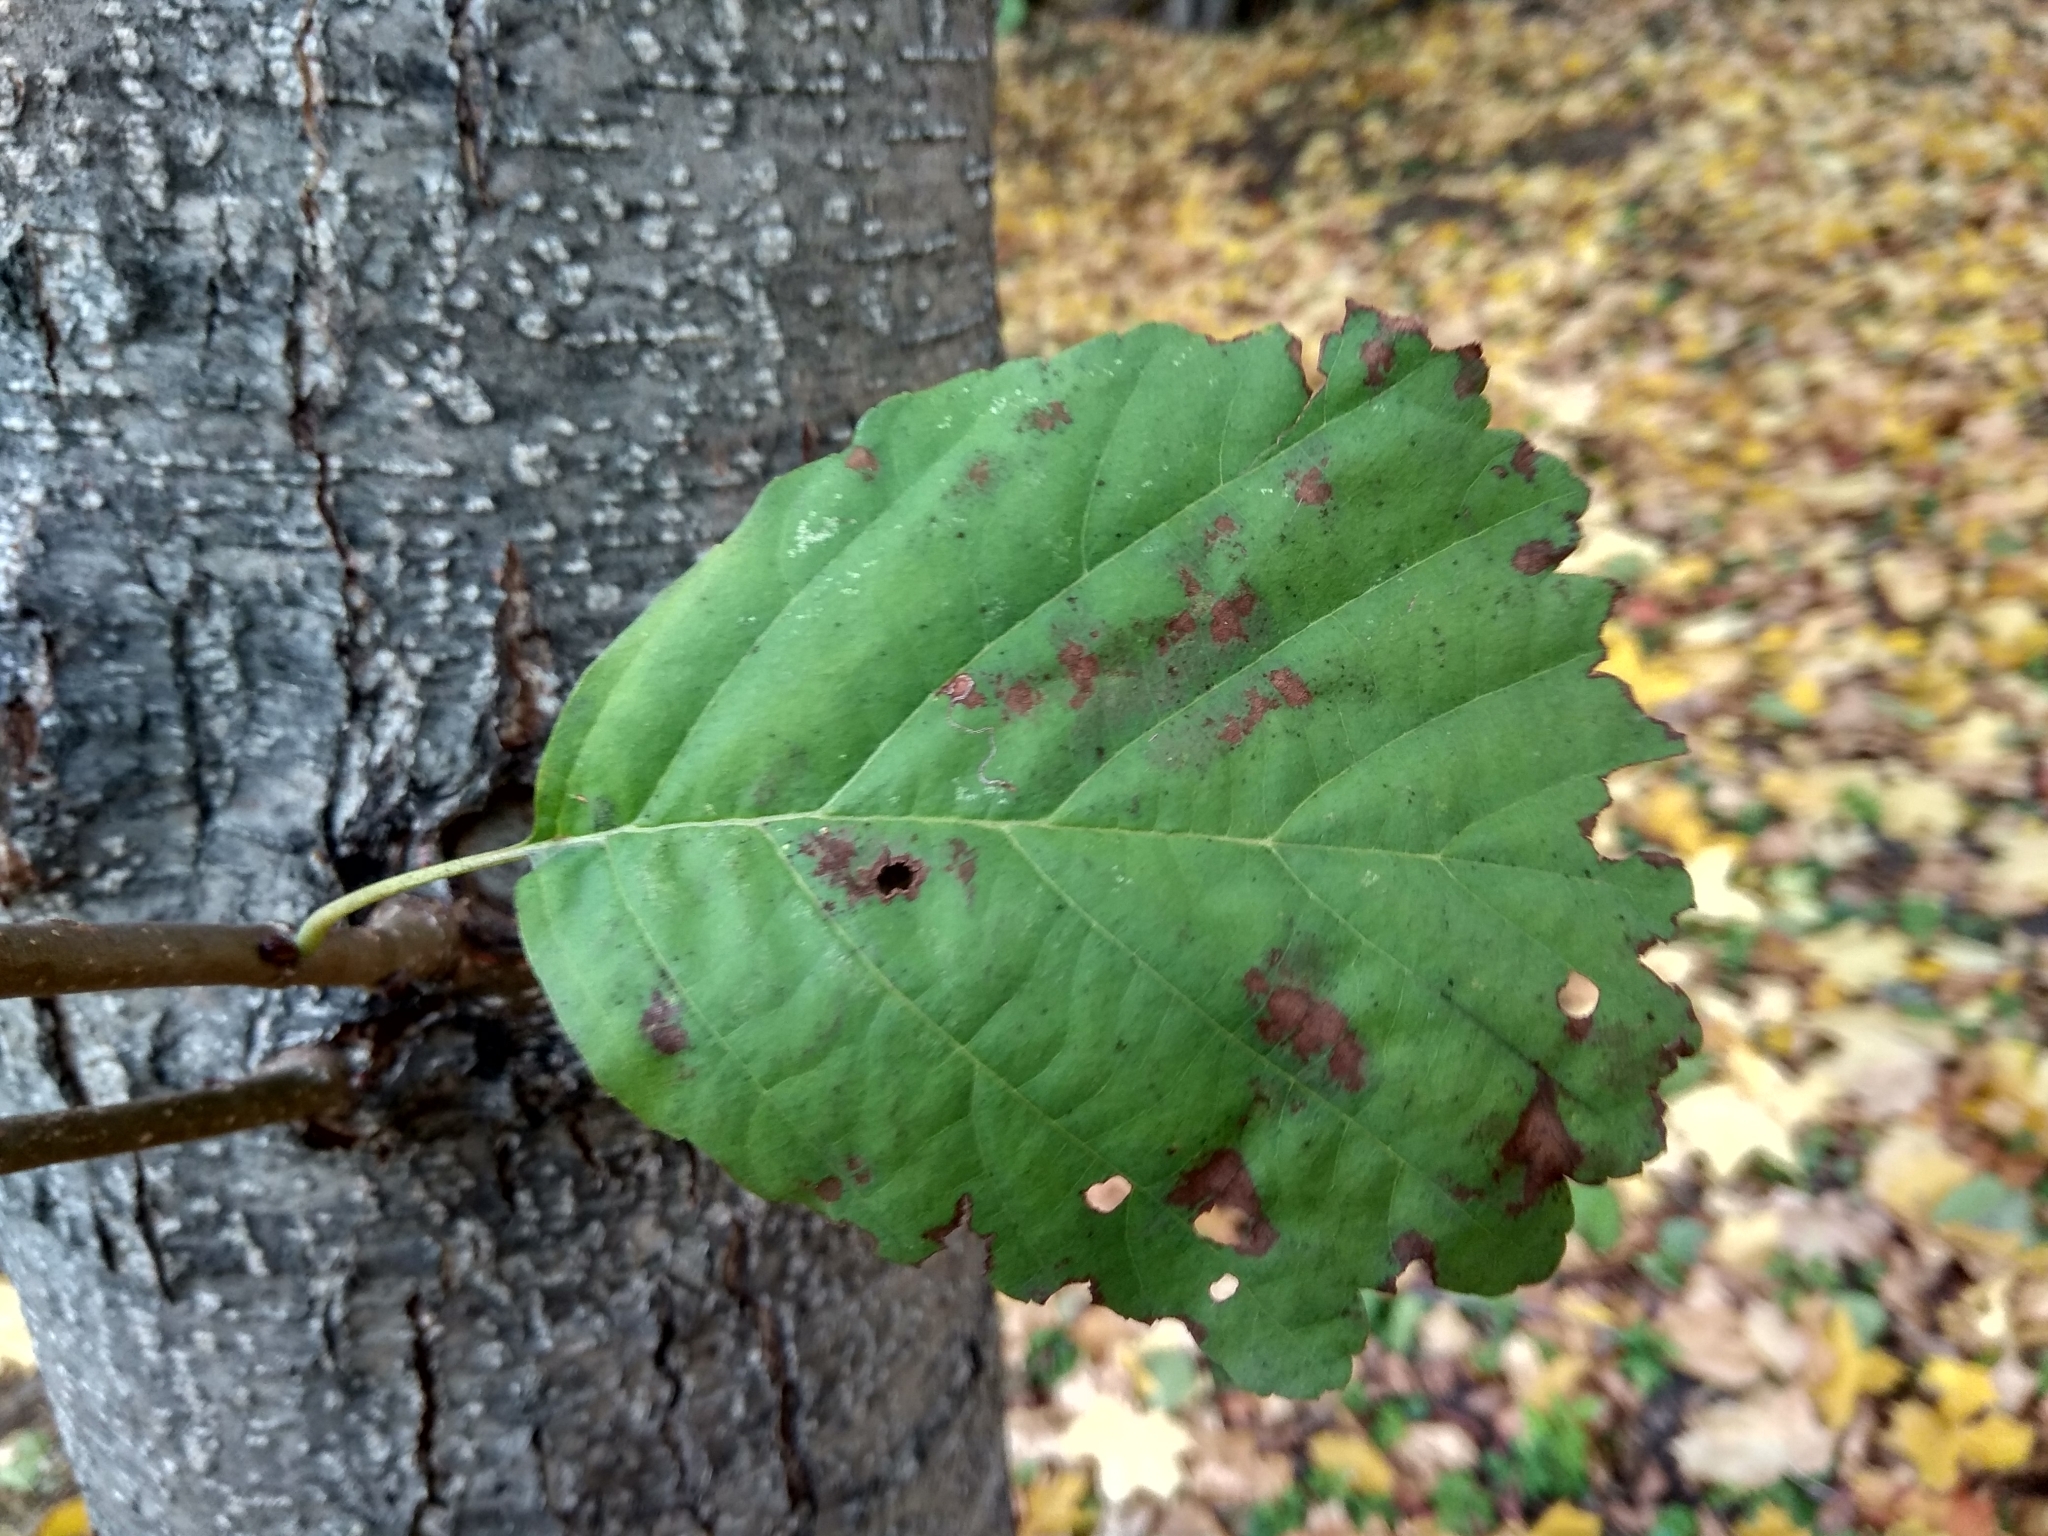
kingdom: Plantae
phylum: Tracheophyta
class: Magnoliopsida
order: Fagales
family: Betulaceae
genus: Alnus
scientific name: Alnus glutinosa
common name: Black alder
